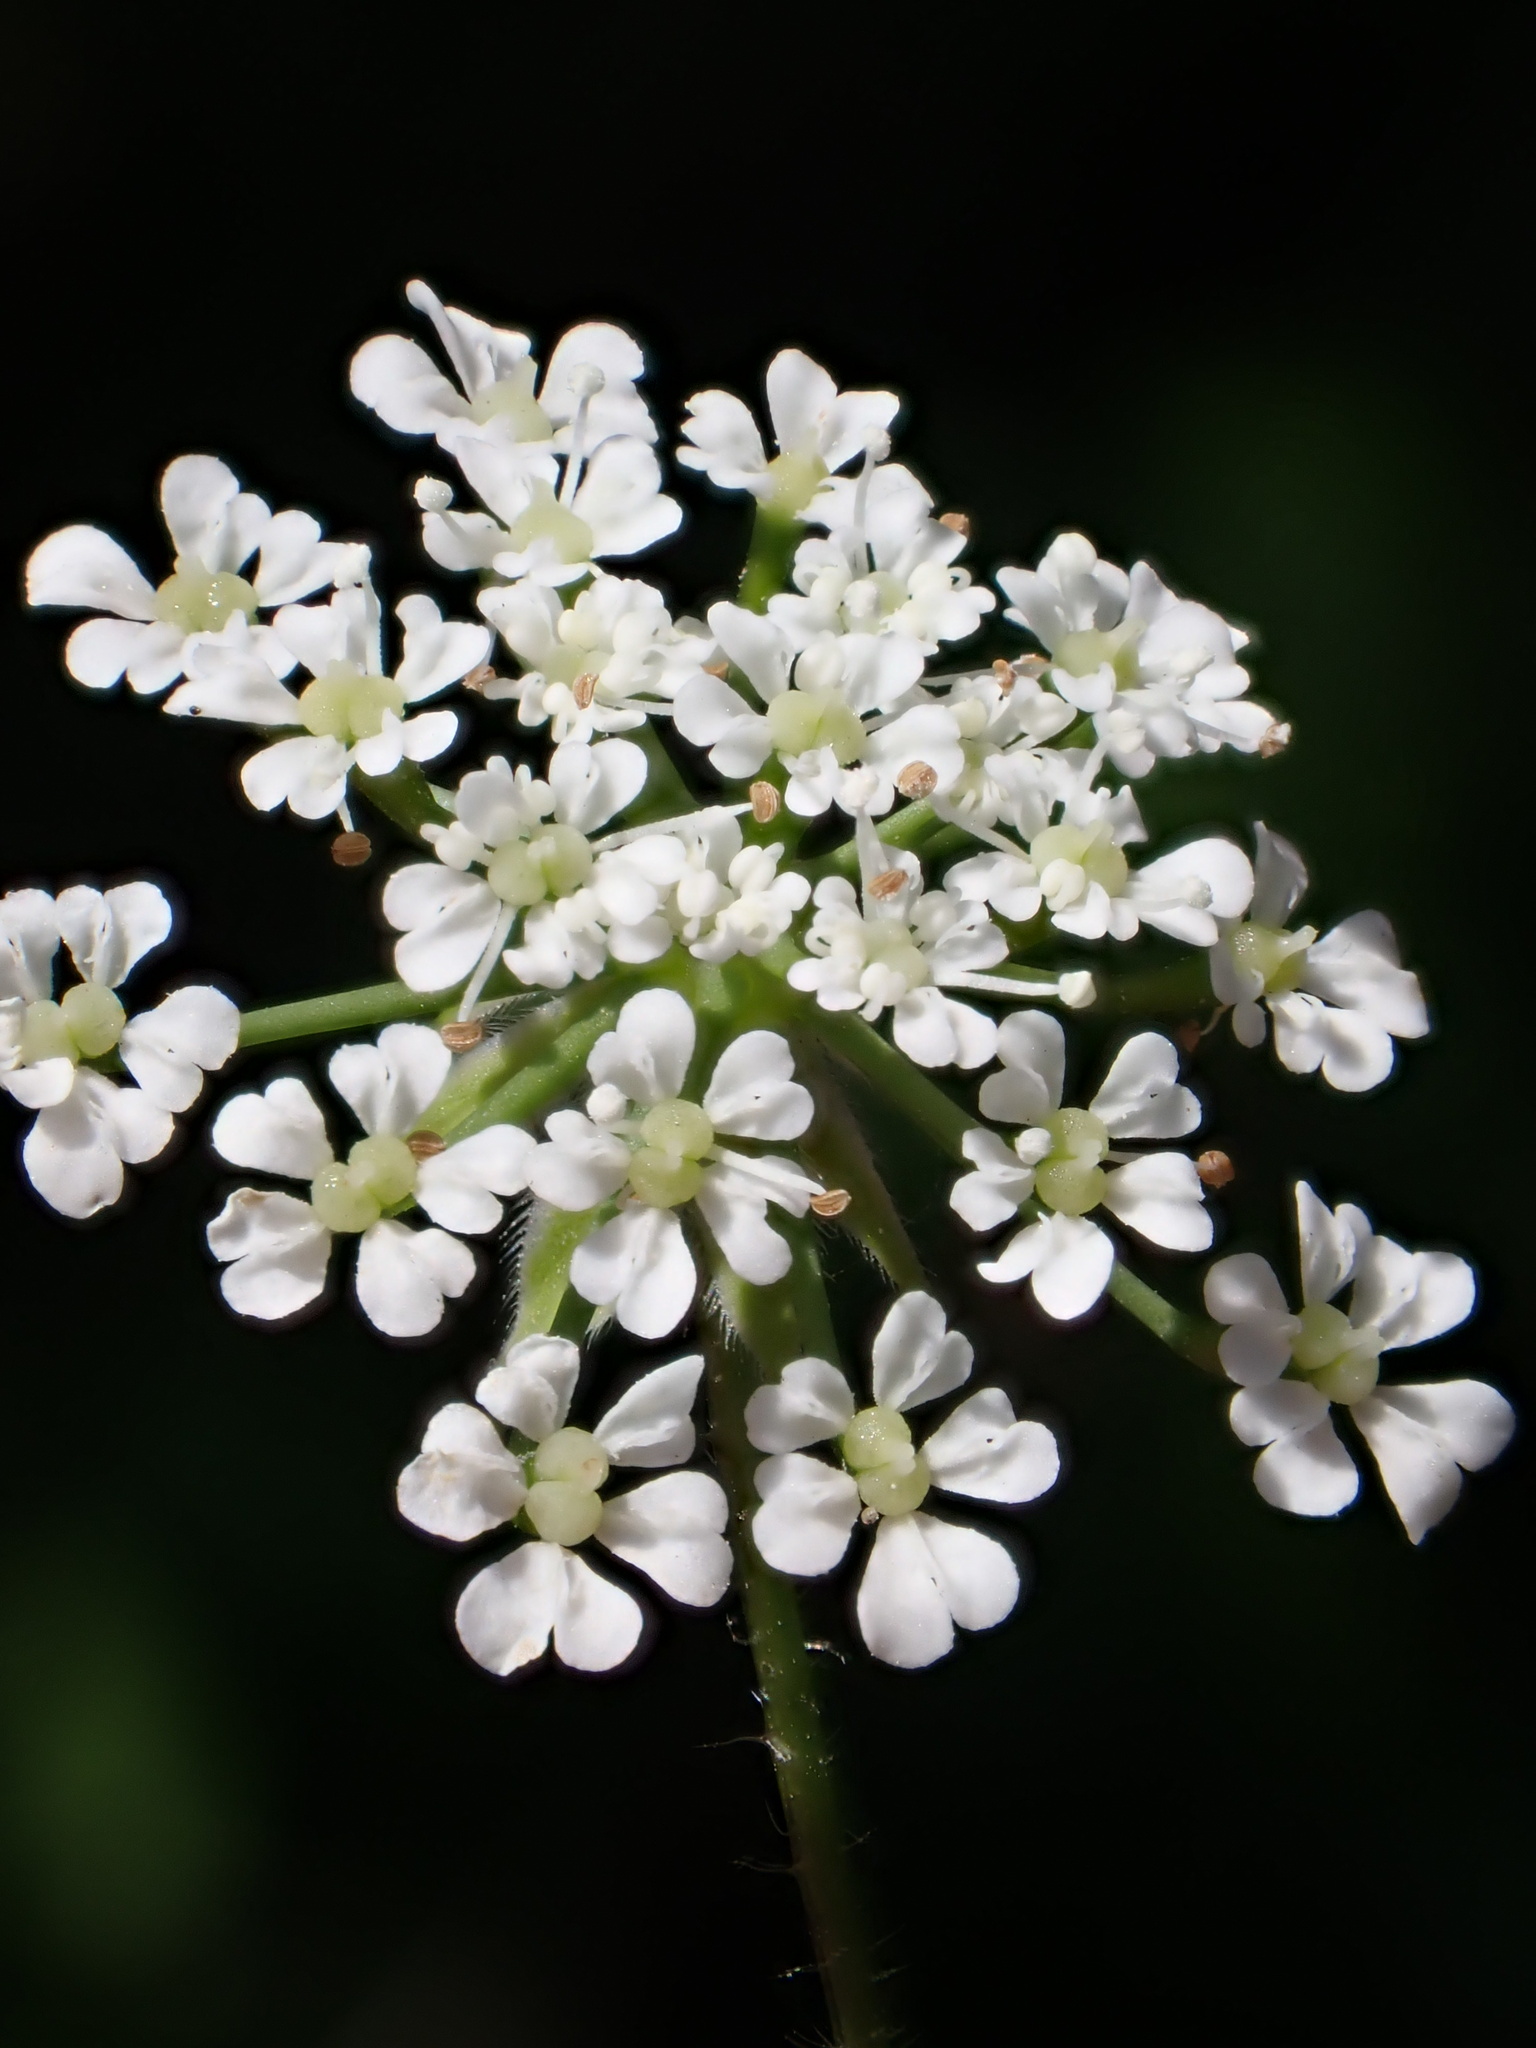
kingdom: Plantae
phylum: Tracheophyta
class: Magnoliopsida
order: Apiales
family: Apiaceae
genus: Chaerophyllum
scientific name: Chaerophyllum temulum
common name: Rough chervil
